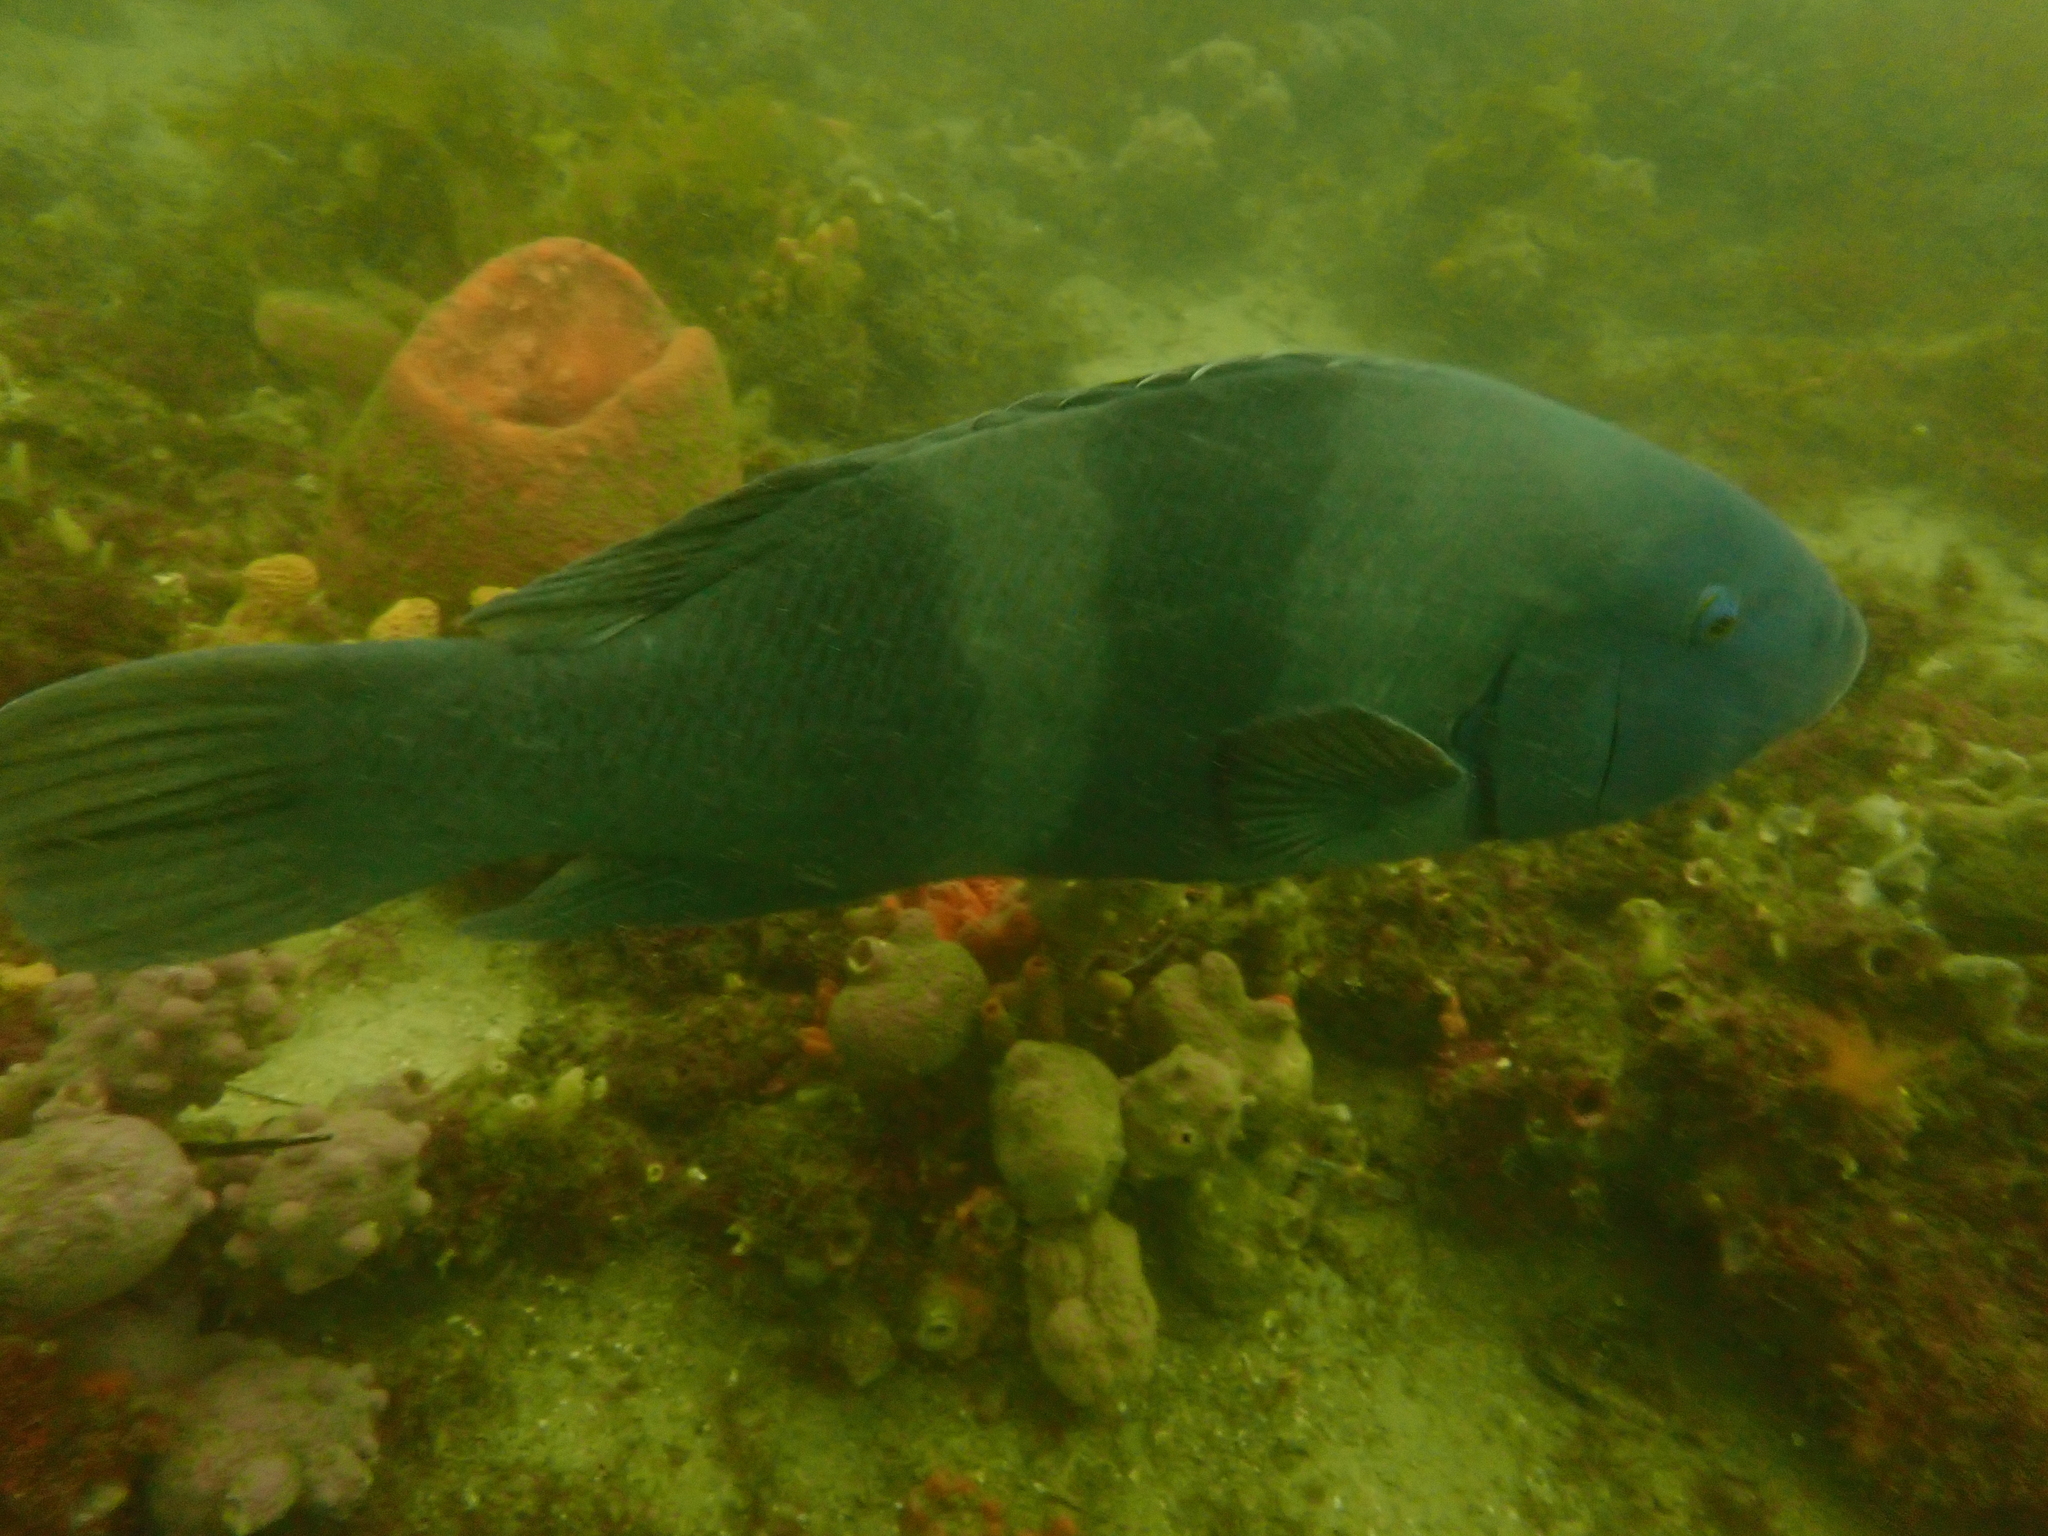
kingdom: Animalia
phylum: Chordata
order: Perciformes
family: Labridae
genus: Achoerodus
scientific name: Achoerodus viridis
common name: Brown groper
